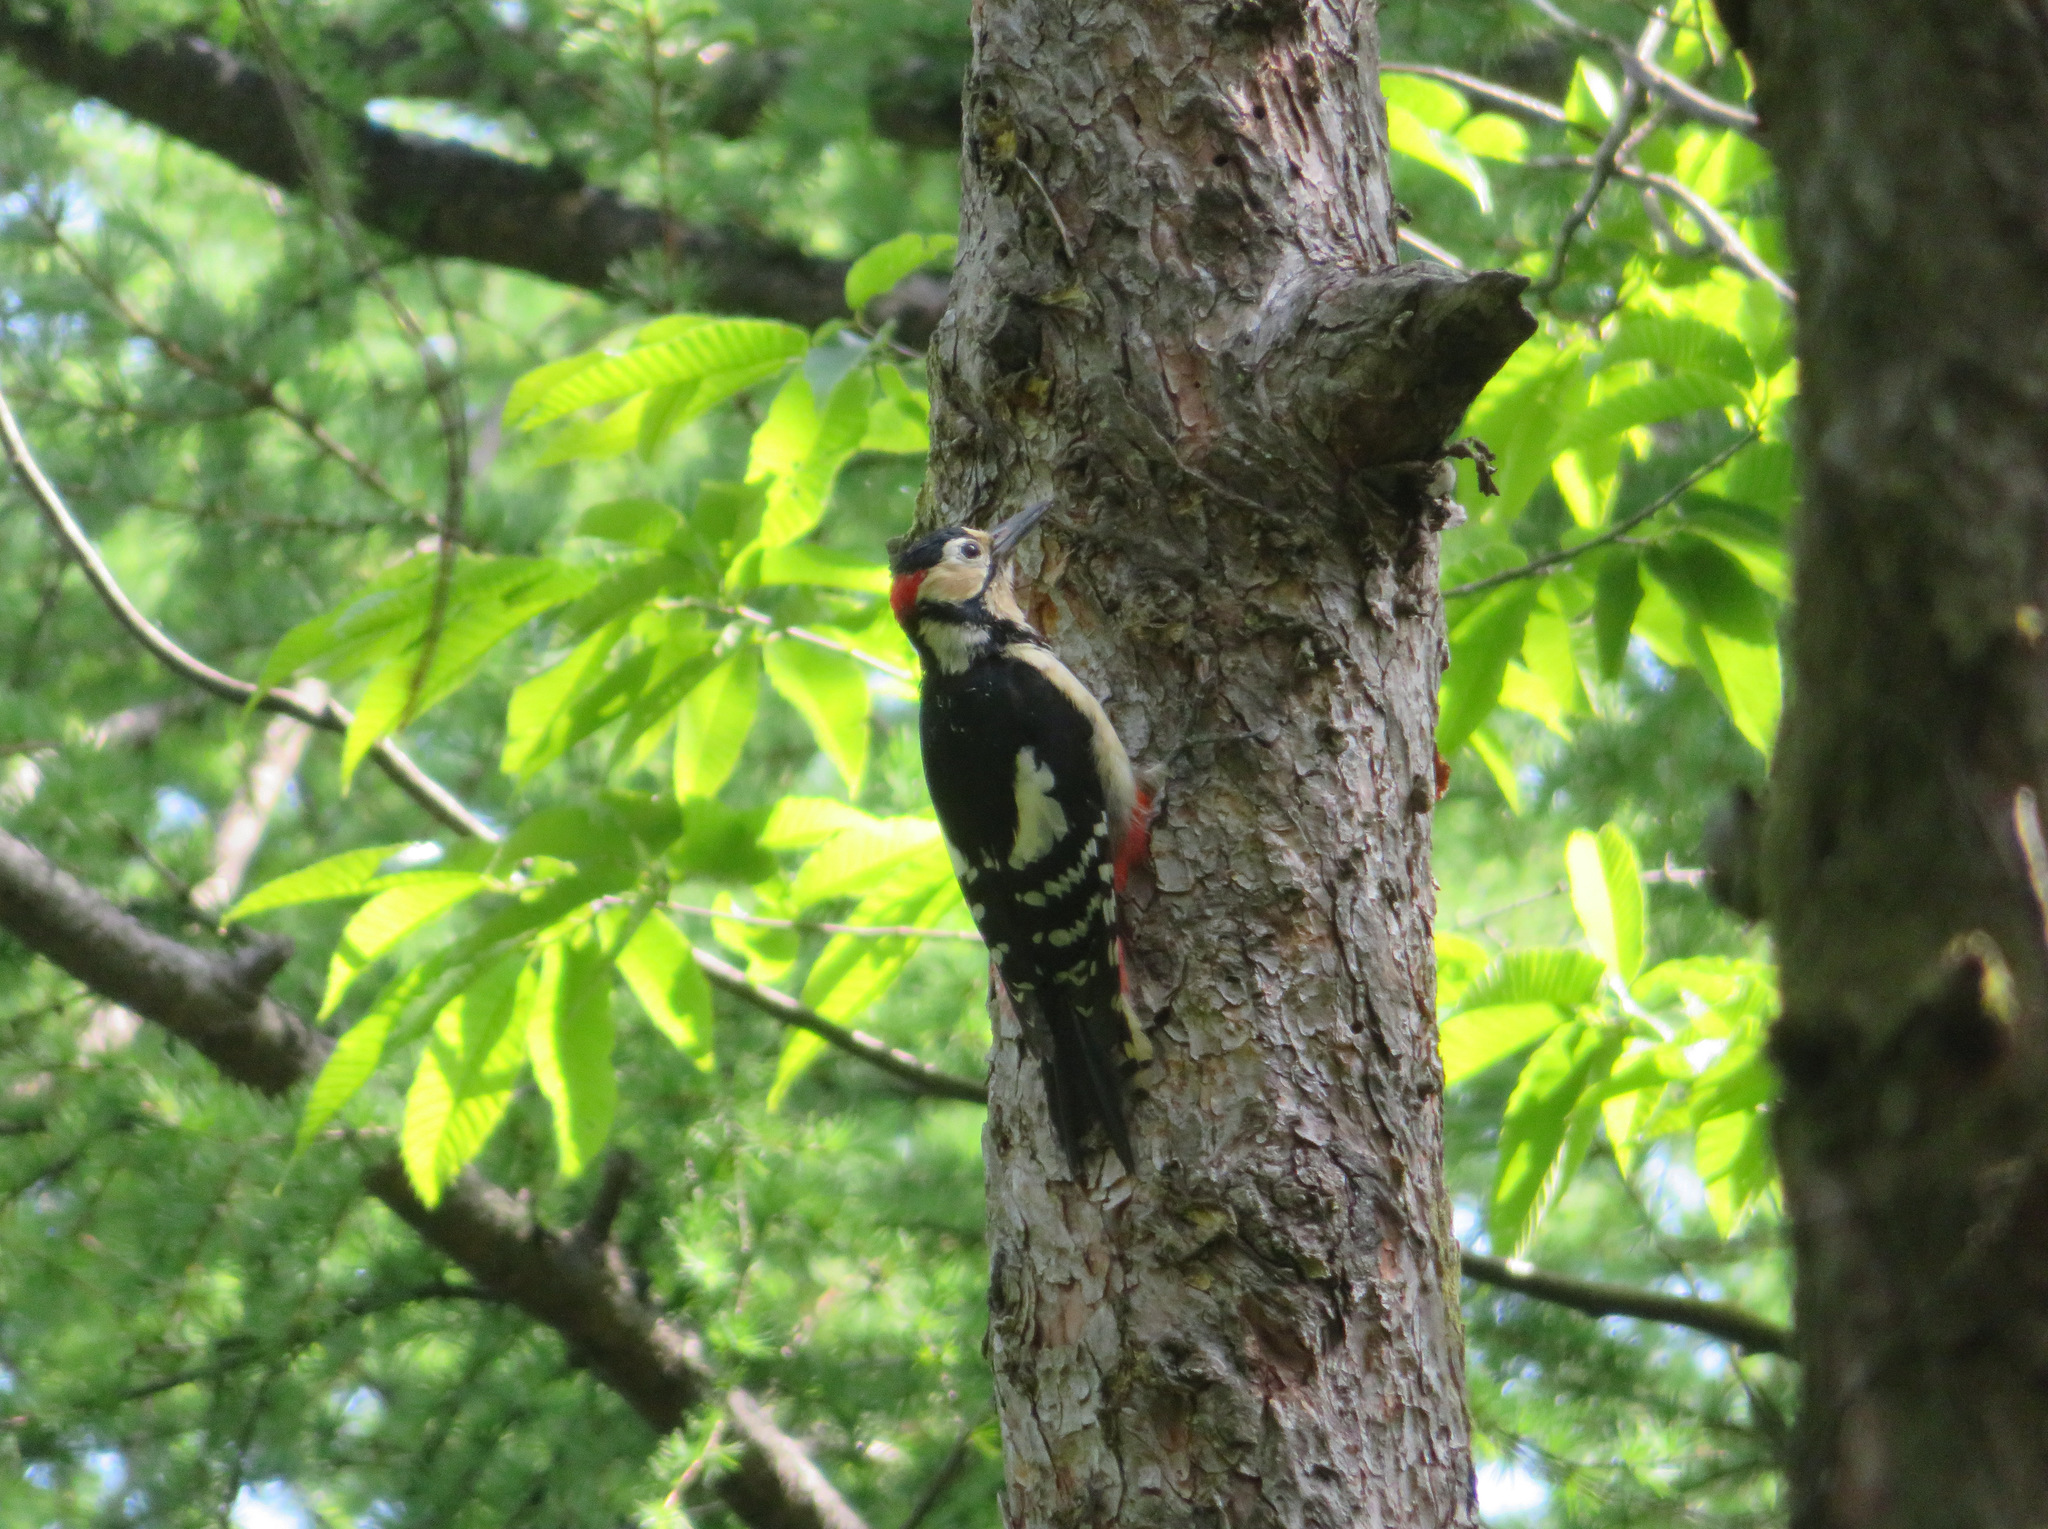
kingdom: Animalia
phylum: Chordata
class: Aves
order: Piciformes
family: Picidae
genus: Dendrocopos
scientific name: Dendrocopos major
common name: Great spotted woodpecker
